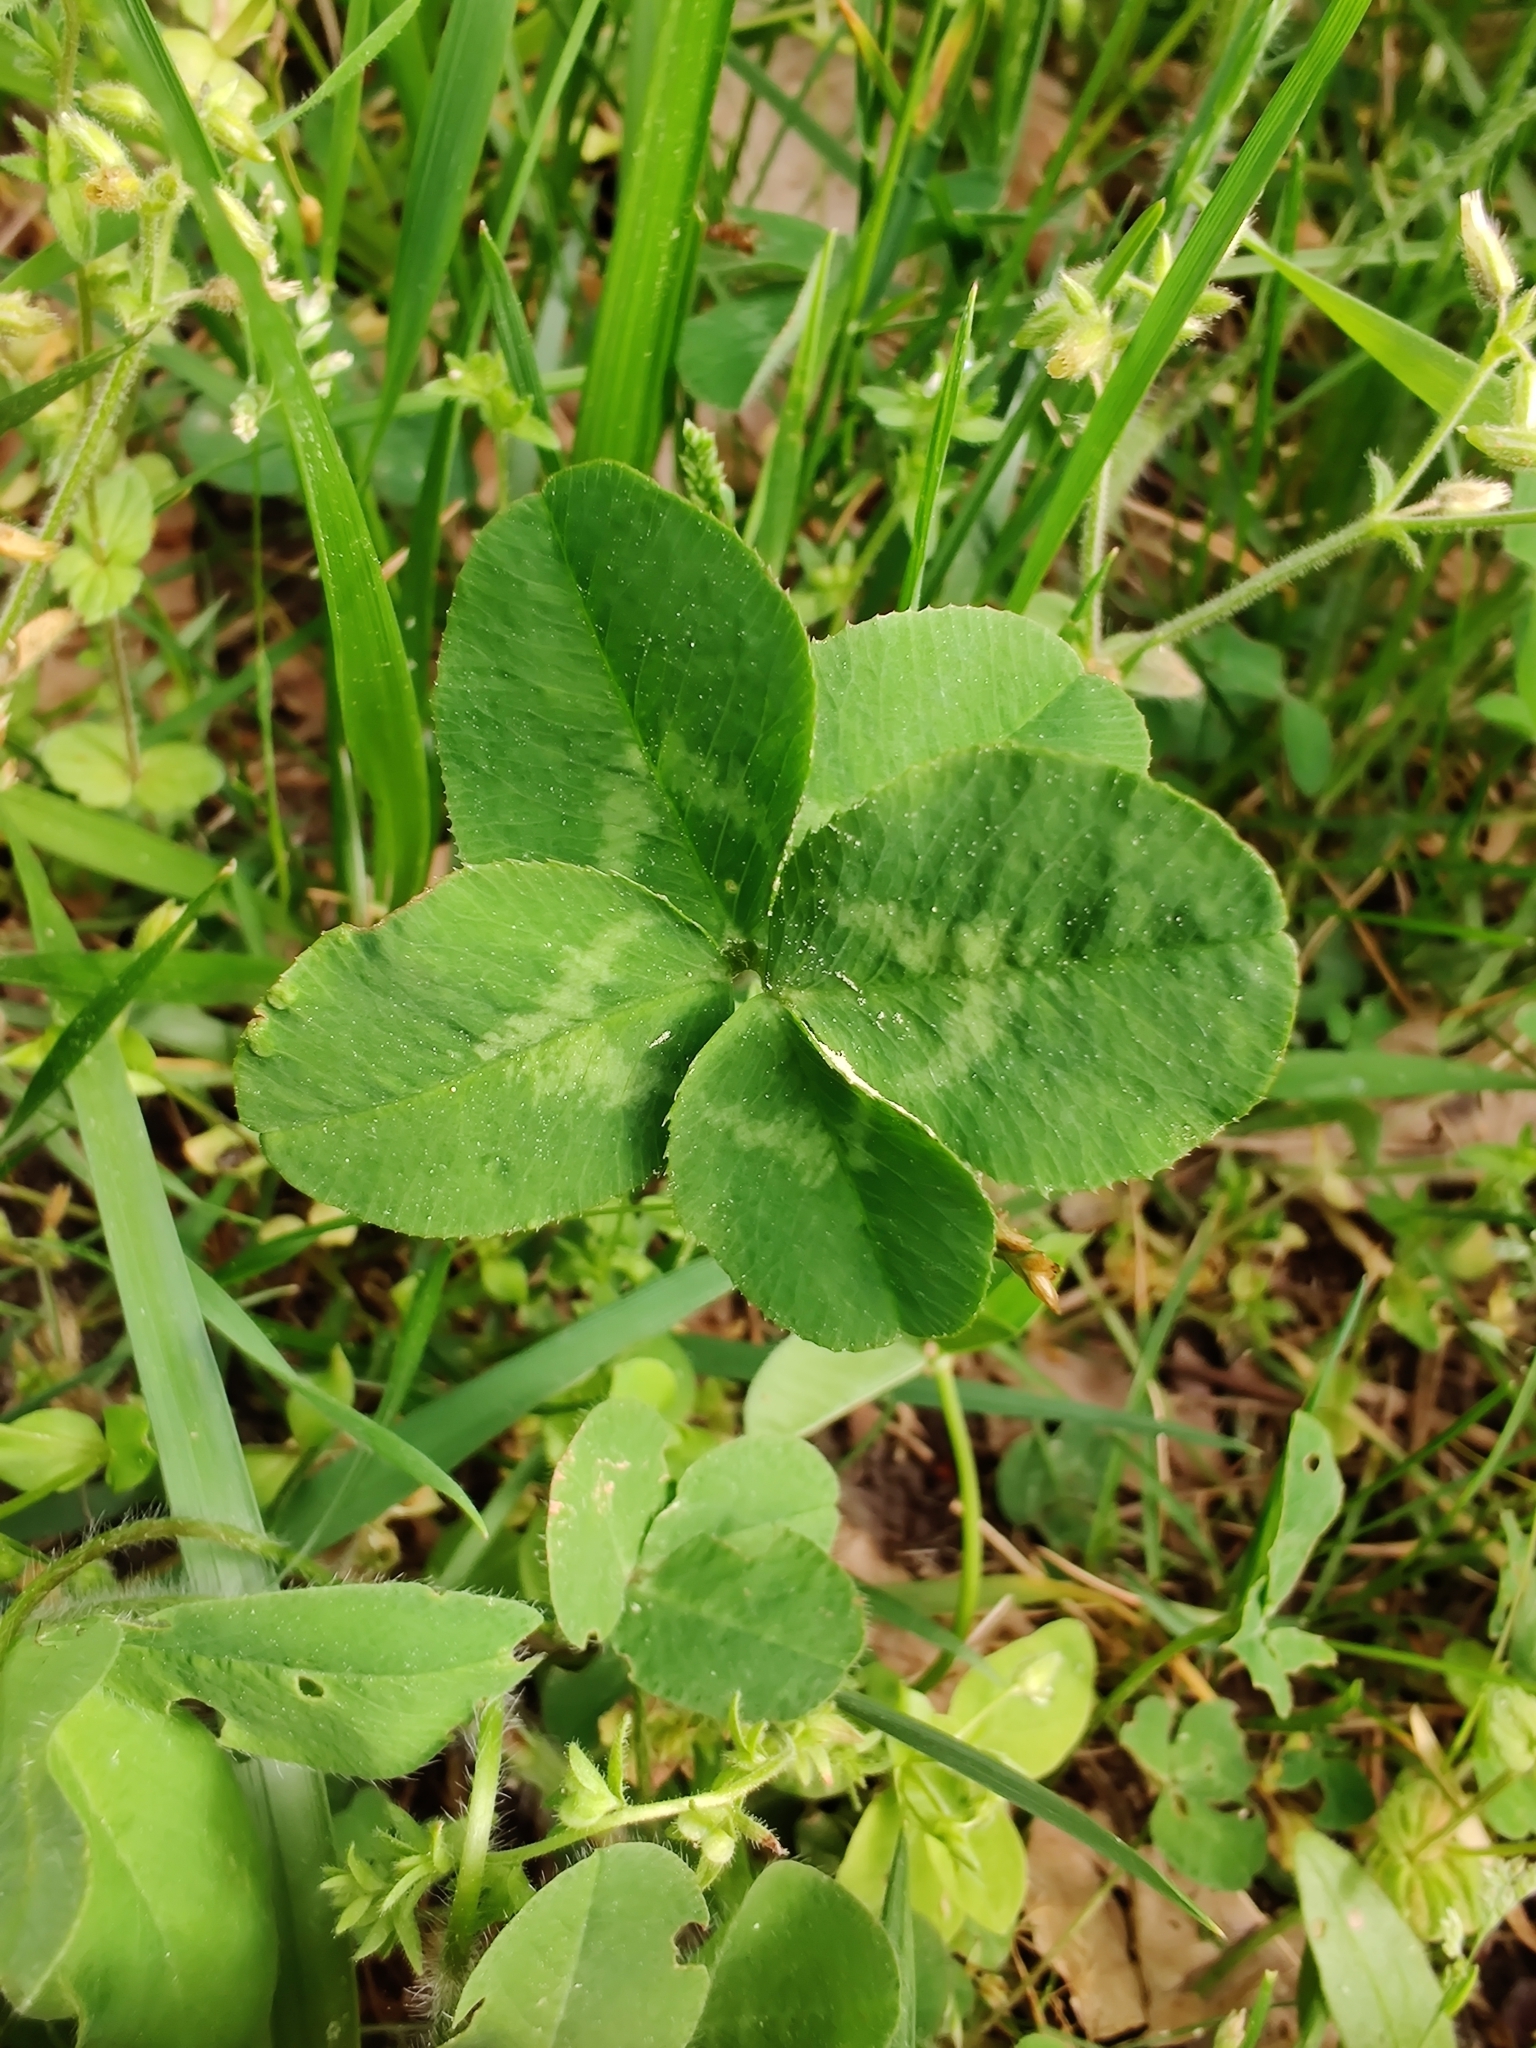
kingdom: Plantae
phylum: Tracheophyta
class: Magnoliopsida
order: Fabales
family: Fabaceae
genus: Trifolium
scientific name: Trifolium repens
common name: White clover
